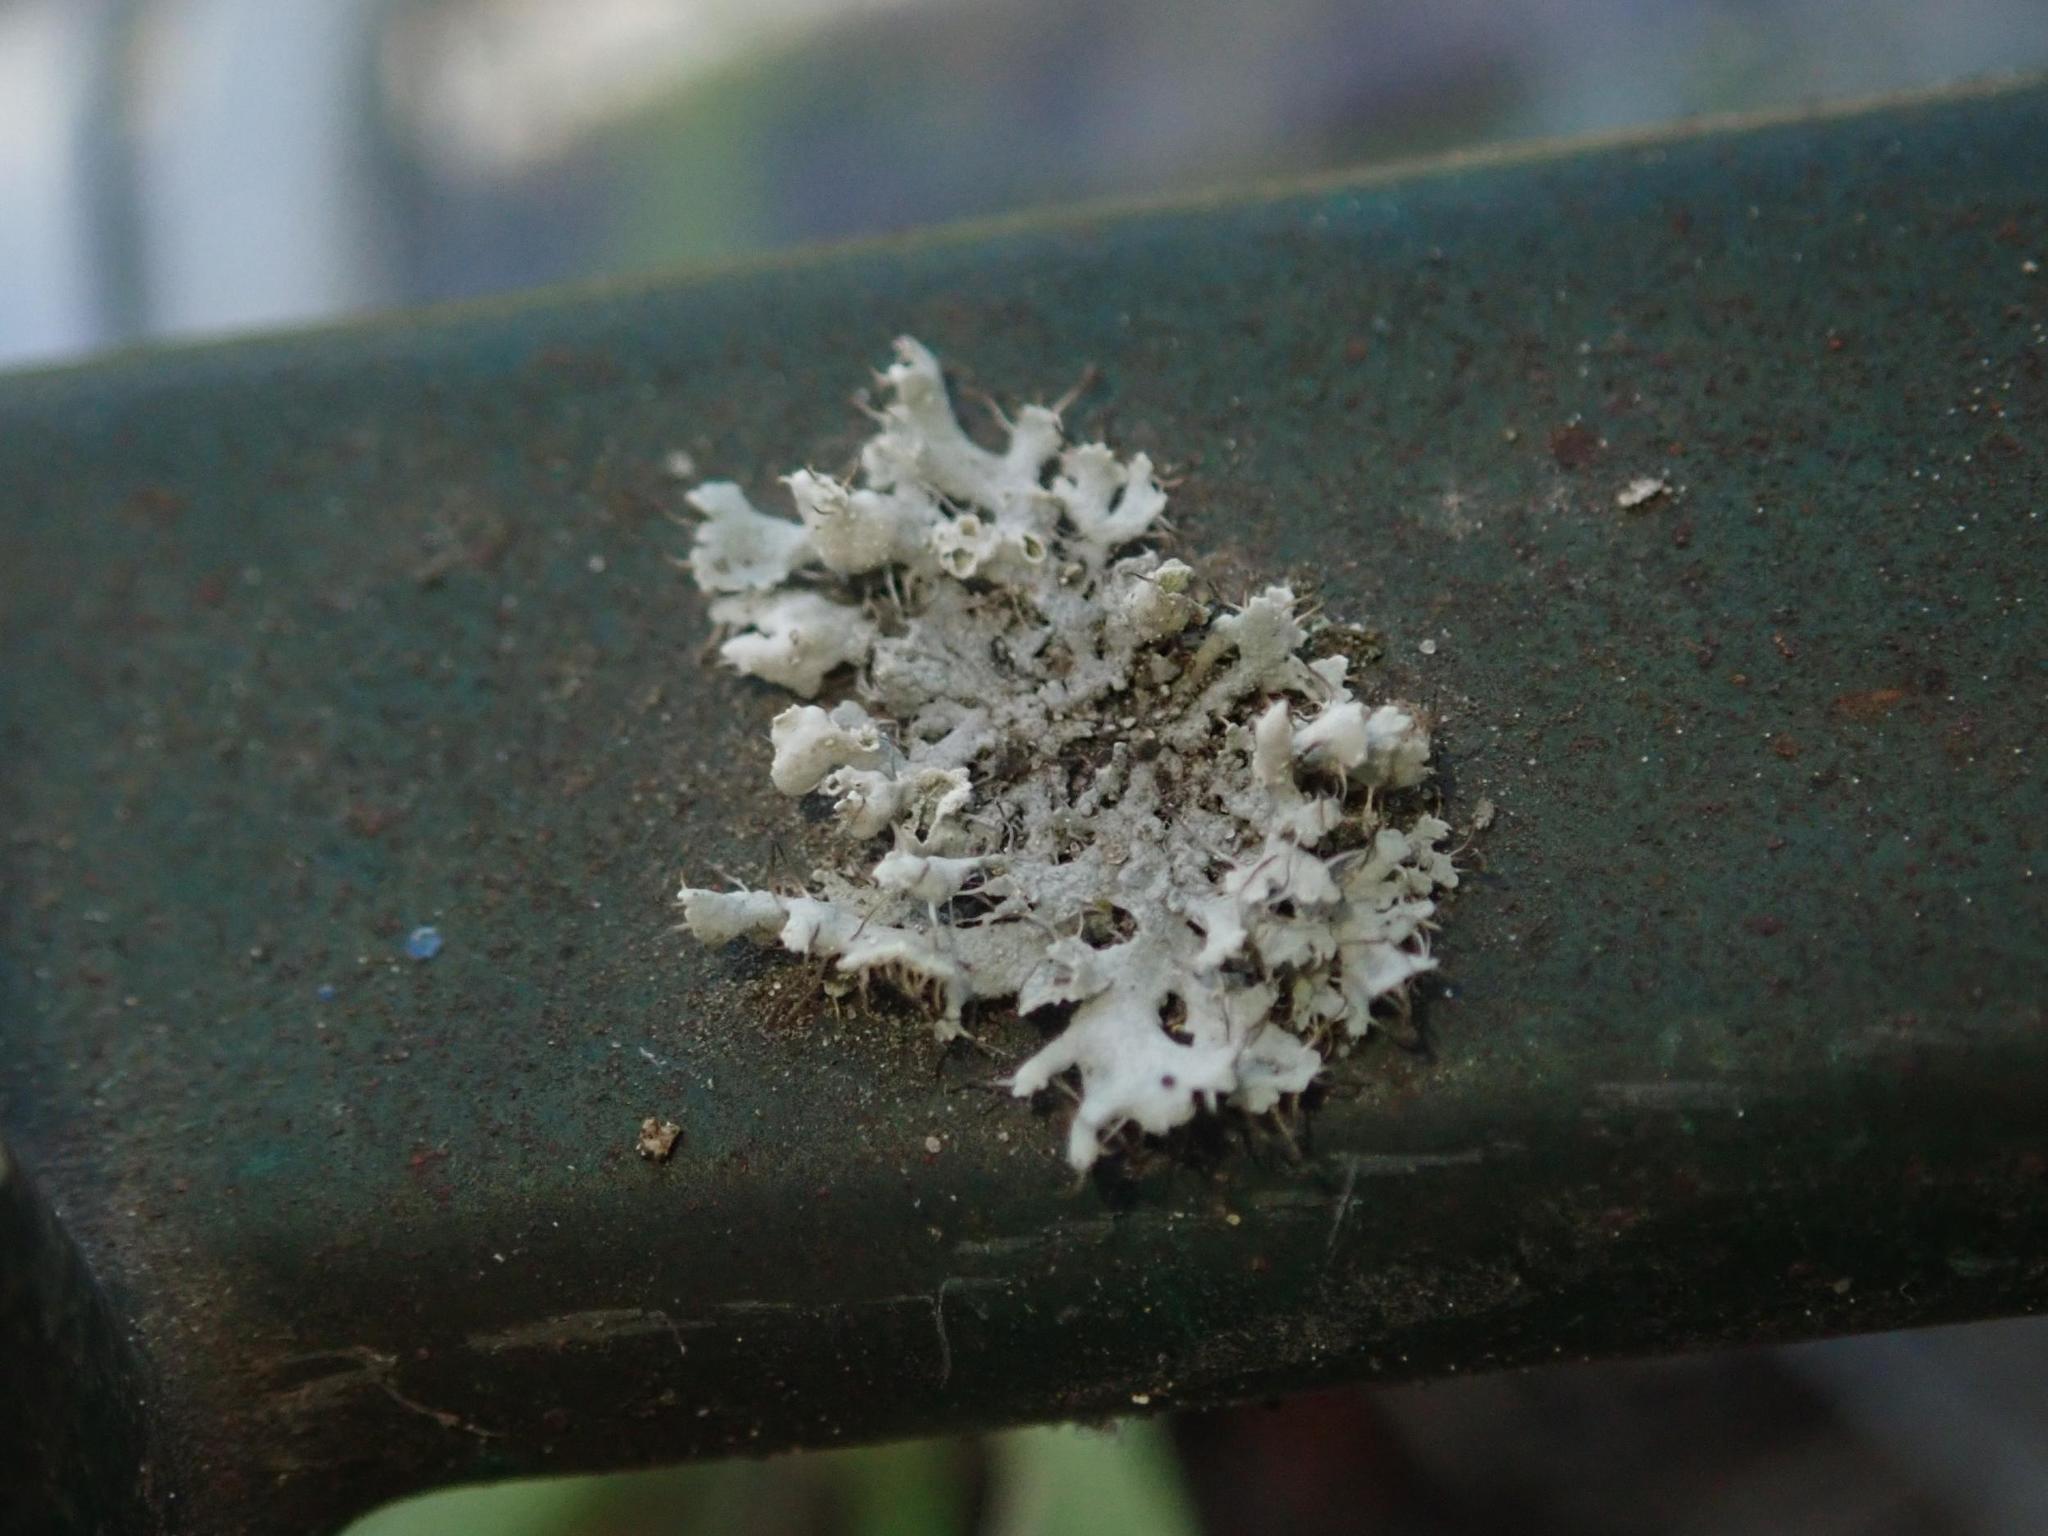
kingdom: Fungi
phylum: Ascomycota
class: Lecanoromycetes
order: Caliciales
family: Physciaceae
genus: Physcia
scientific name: Physcia adscendens
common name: Hooded rosette lichen
